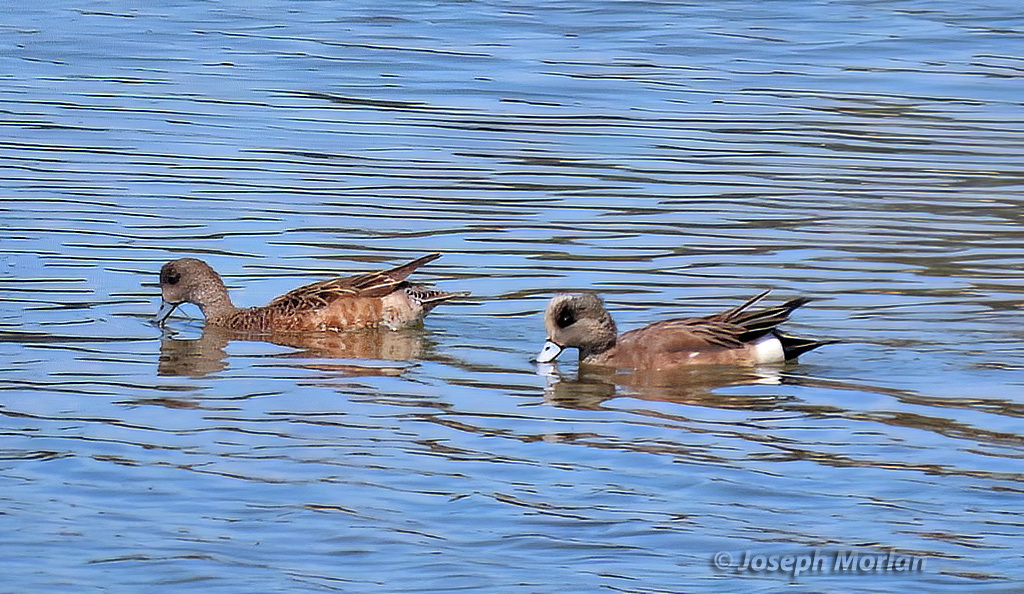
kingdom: Animalia
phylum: Chordata
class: Aves
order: Anseriformes
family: Anatidae
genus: Mareca
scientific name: Mareca americana
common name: American wigeon
